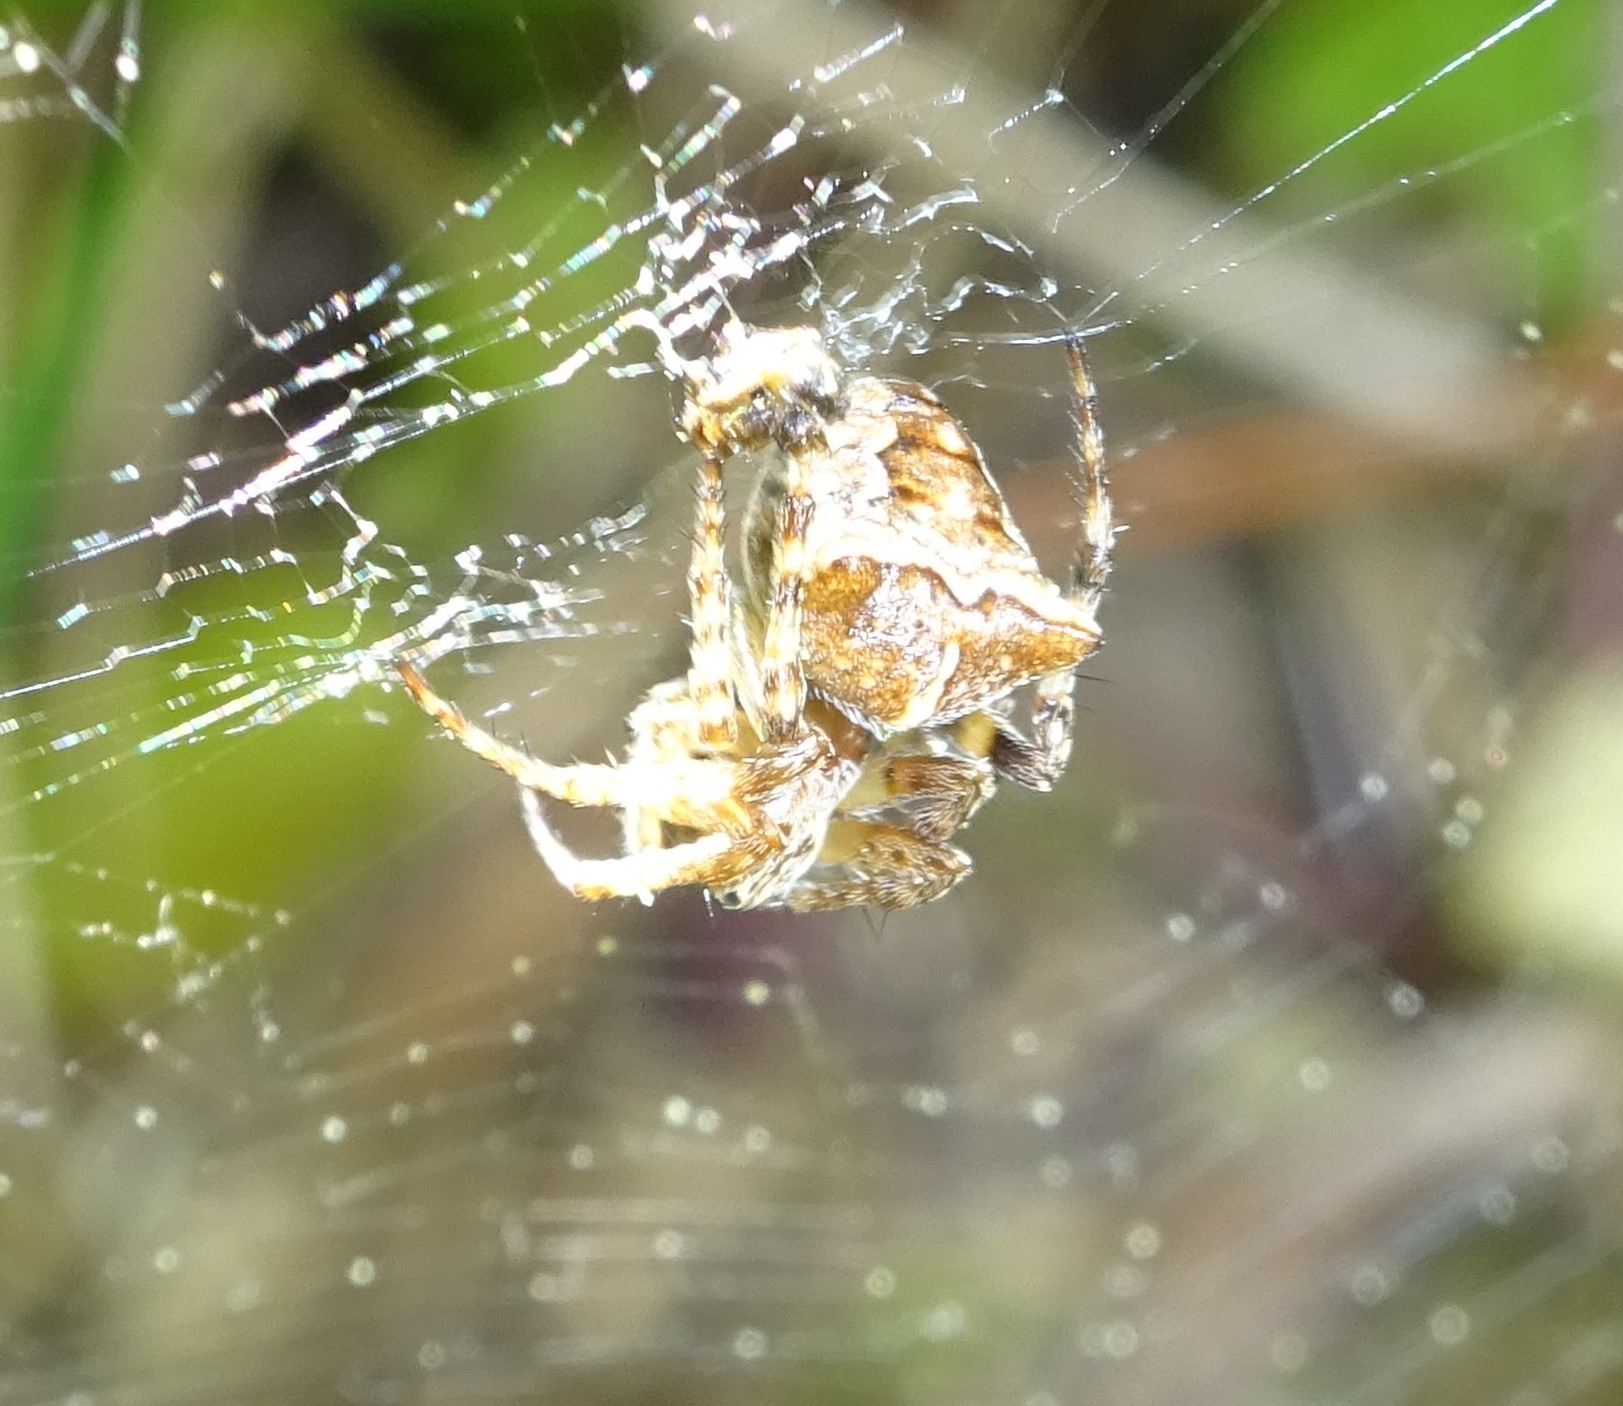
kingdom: Animalia
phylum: Arthropoda
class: Arachnida
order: Araneae
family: Araneidae
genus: Gibbaranea
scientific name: Gibbaranea bituberculata
